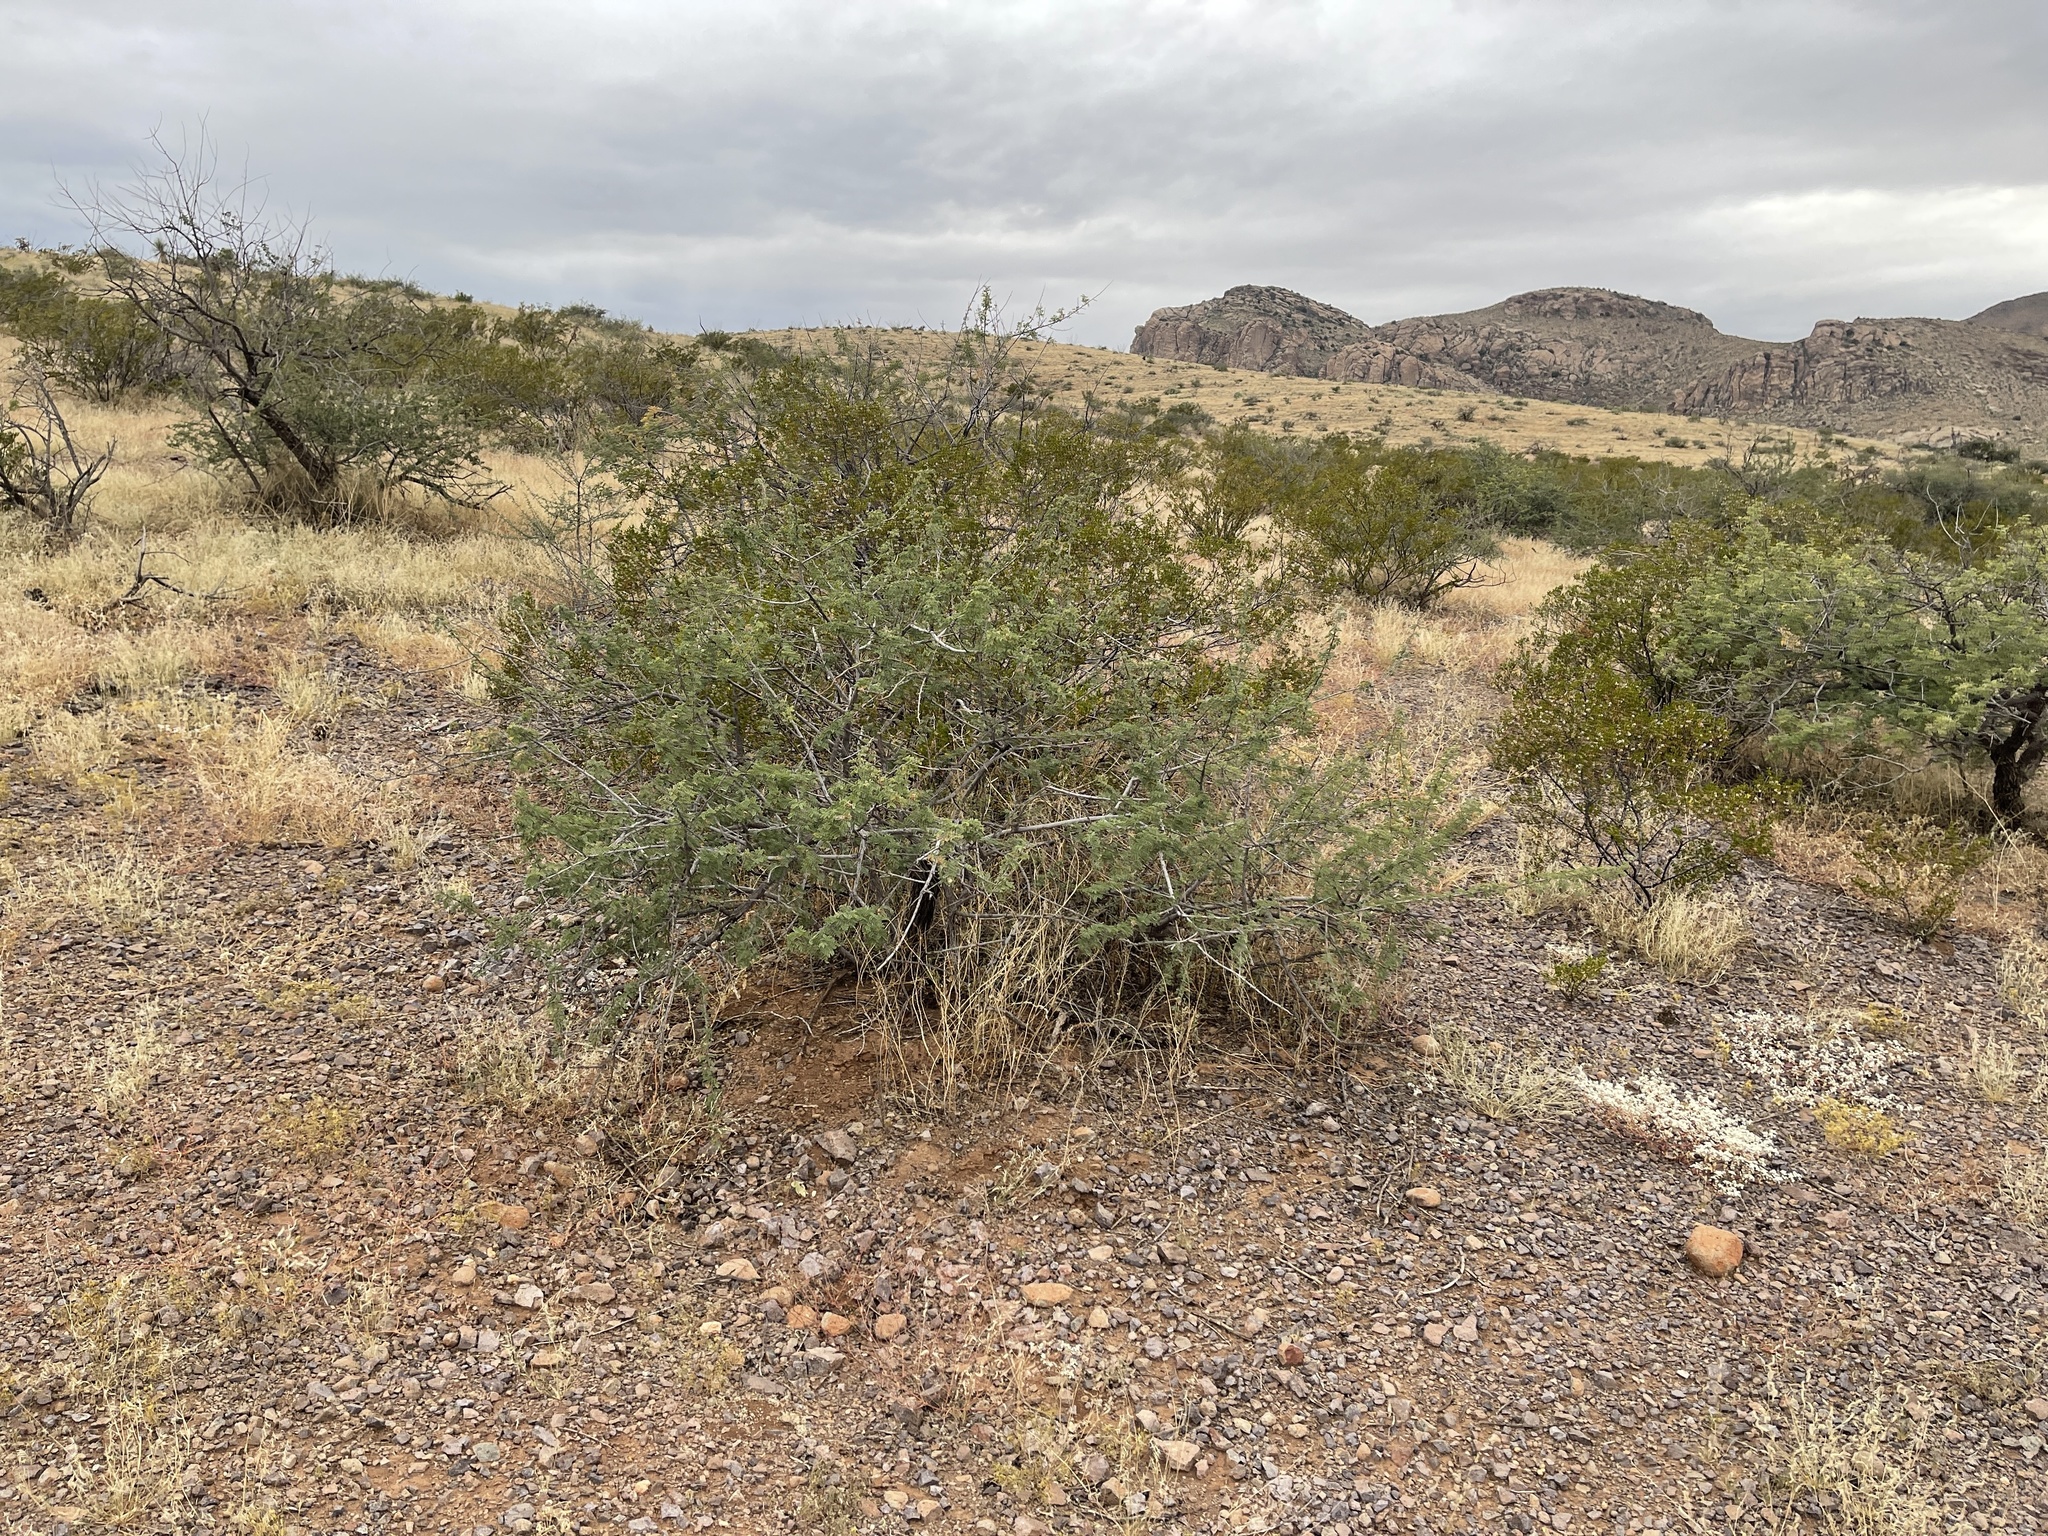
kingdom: Plantae
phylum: Tracheophyta
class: Magnoliopsida
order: Fabales
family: Fabaceae
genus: Senegalia
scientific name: Senegalia greggii
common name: Texas-mimosa
